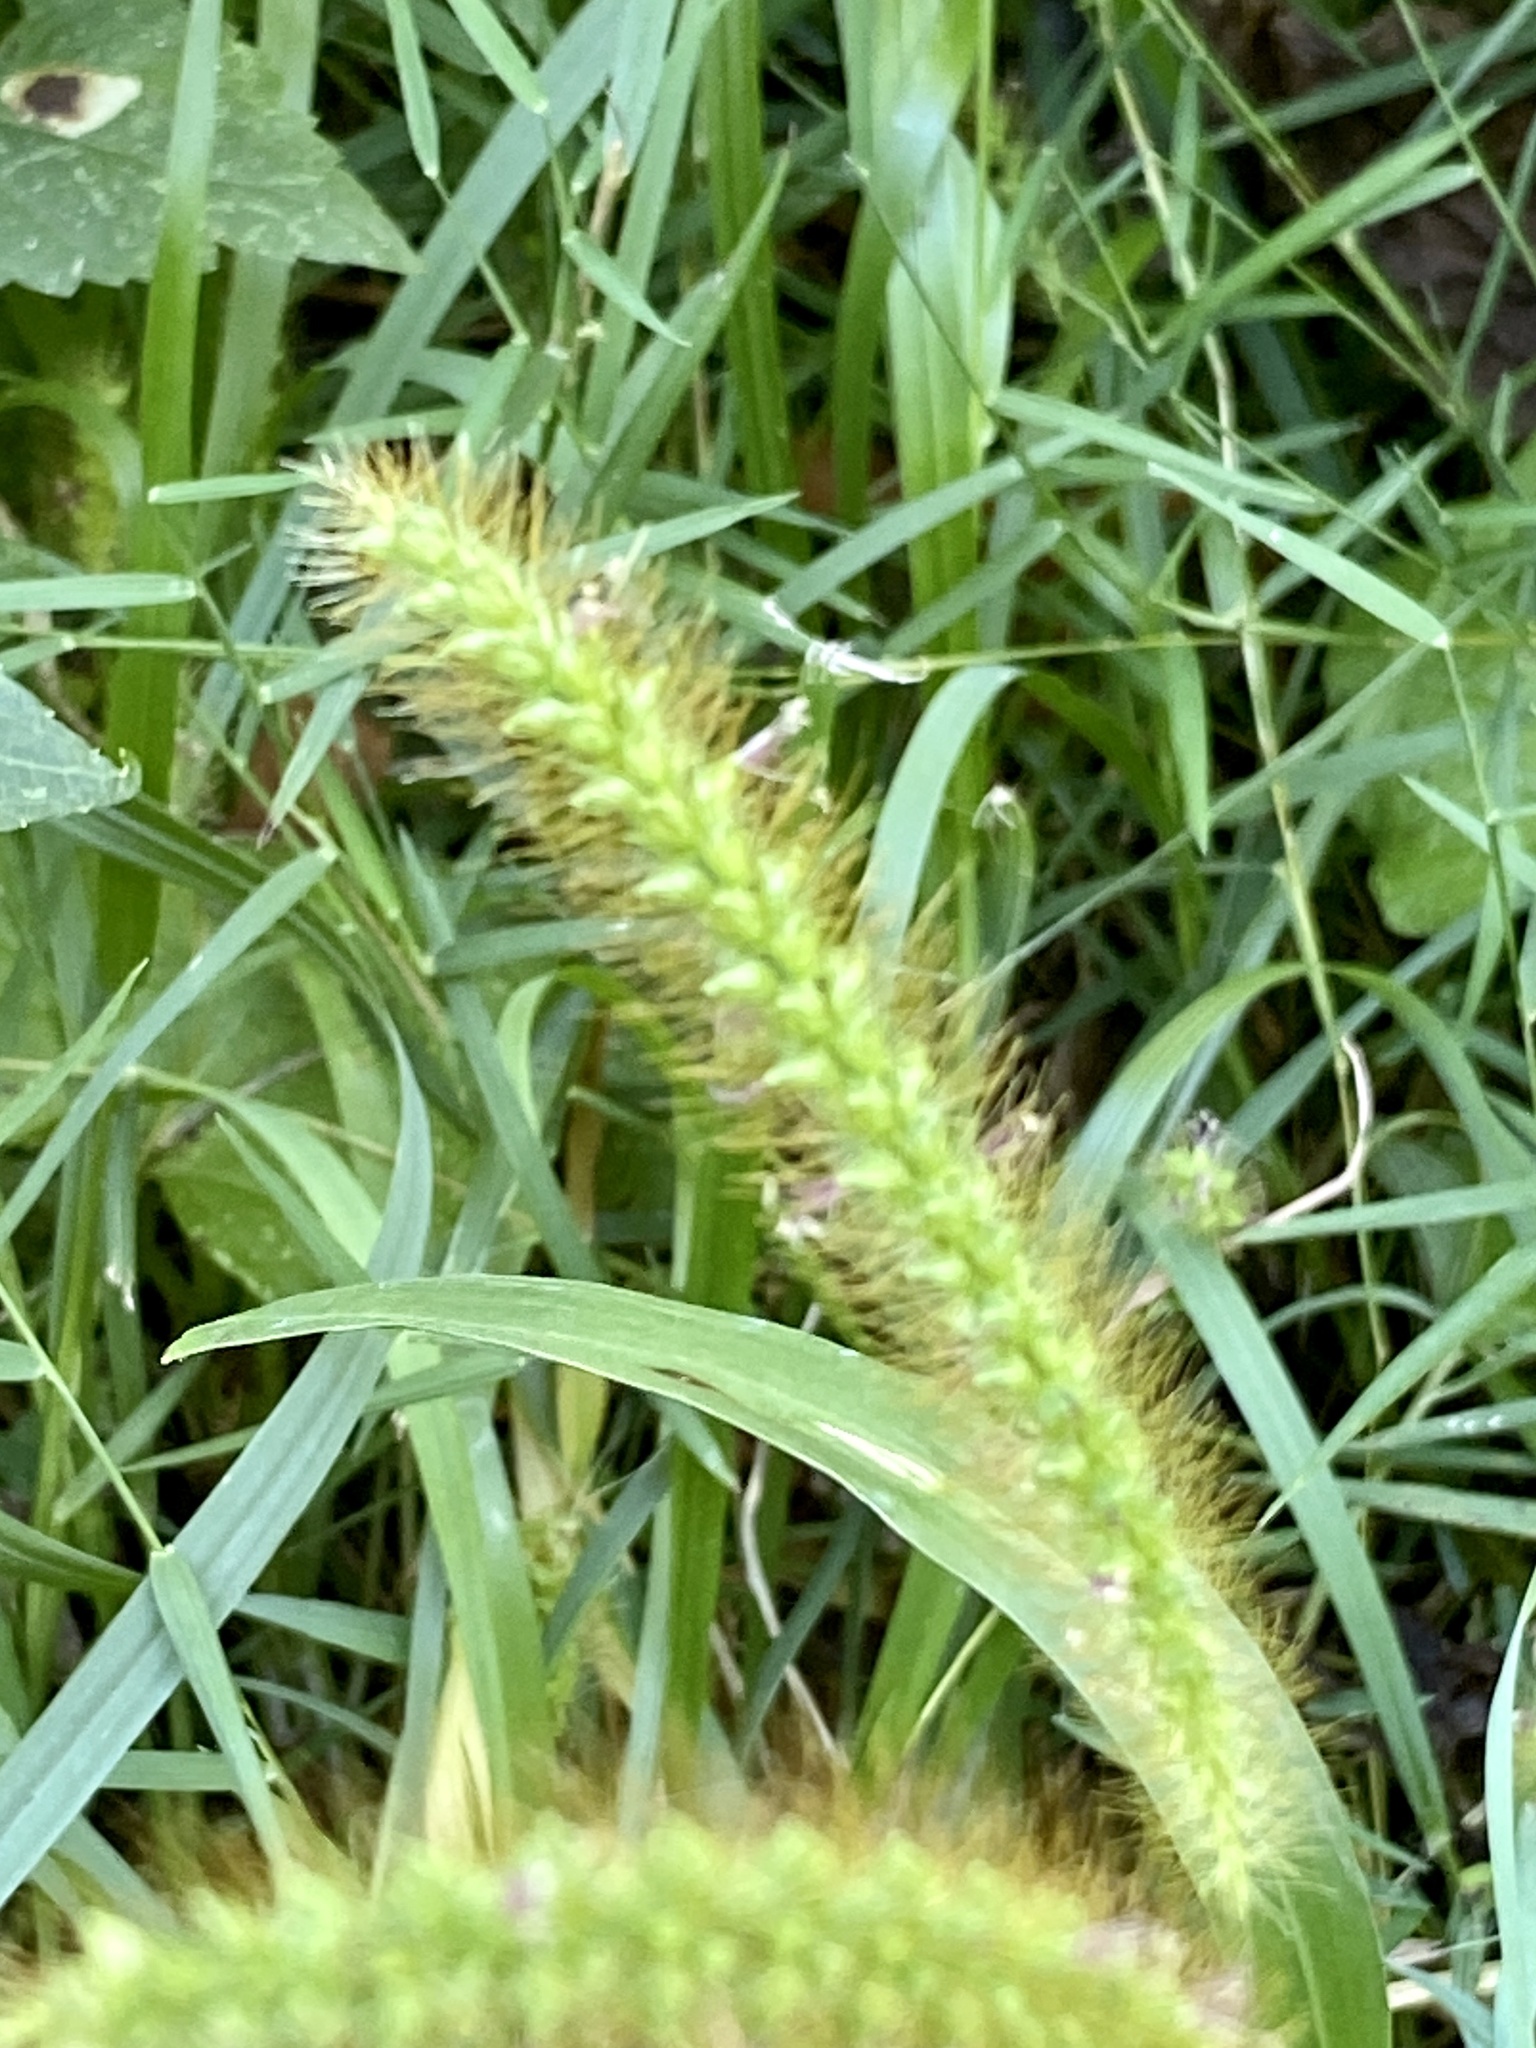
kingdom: Plantae
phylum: Tracheophyta
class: Liliopsida
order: Poales
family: Poaceae
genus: Setaria
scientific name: Setaria pumila
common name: Yellow bristle-grass
